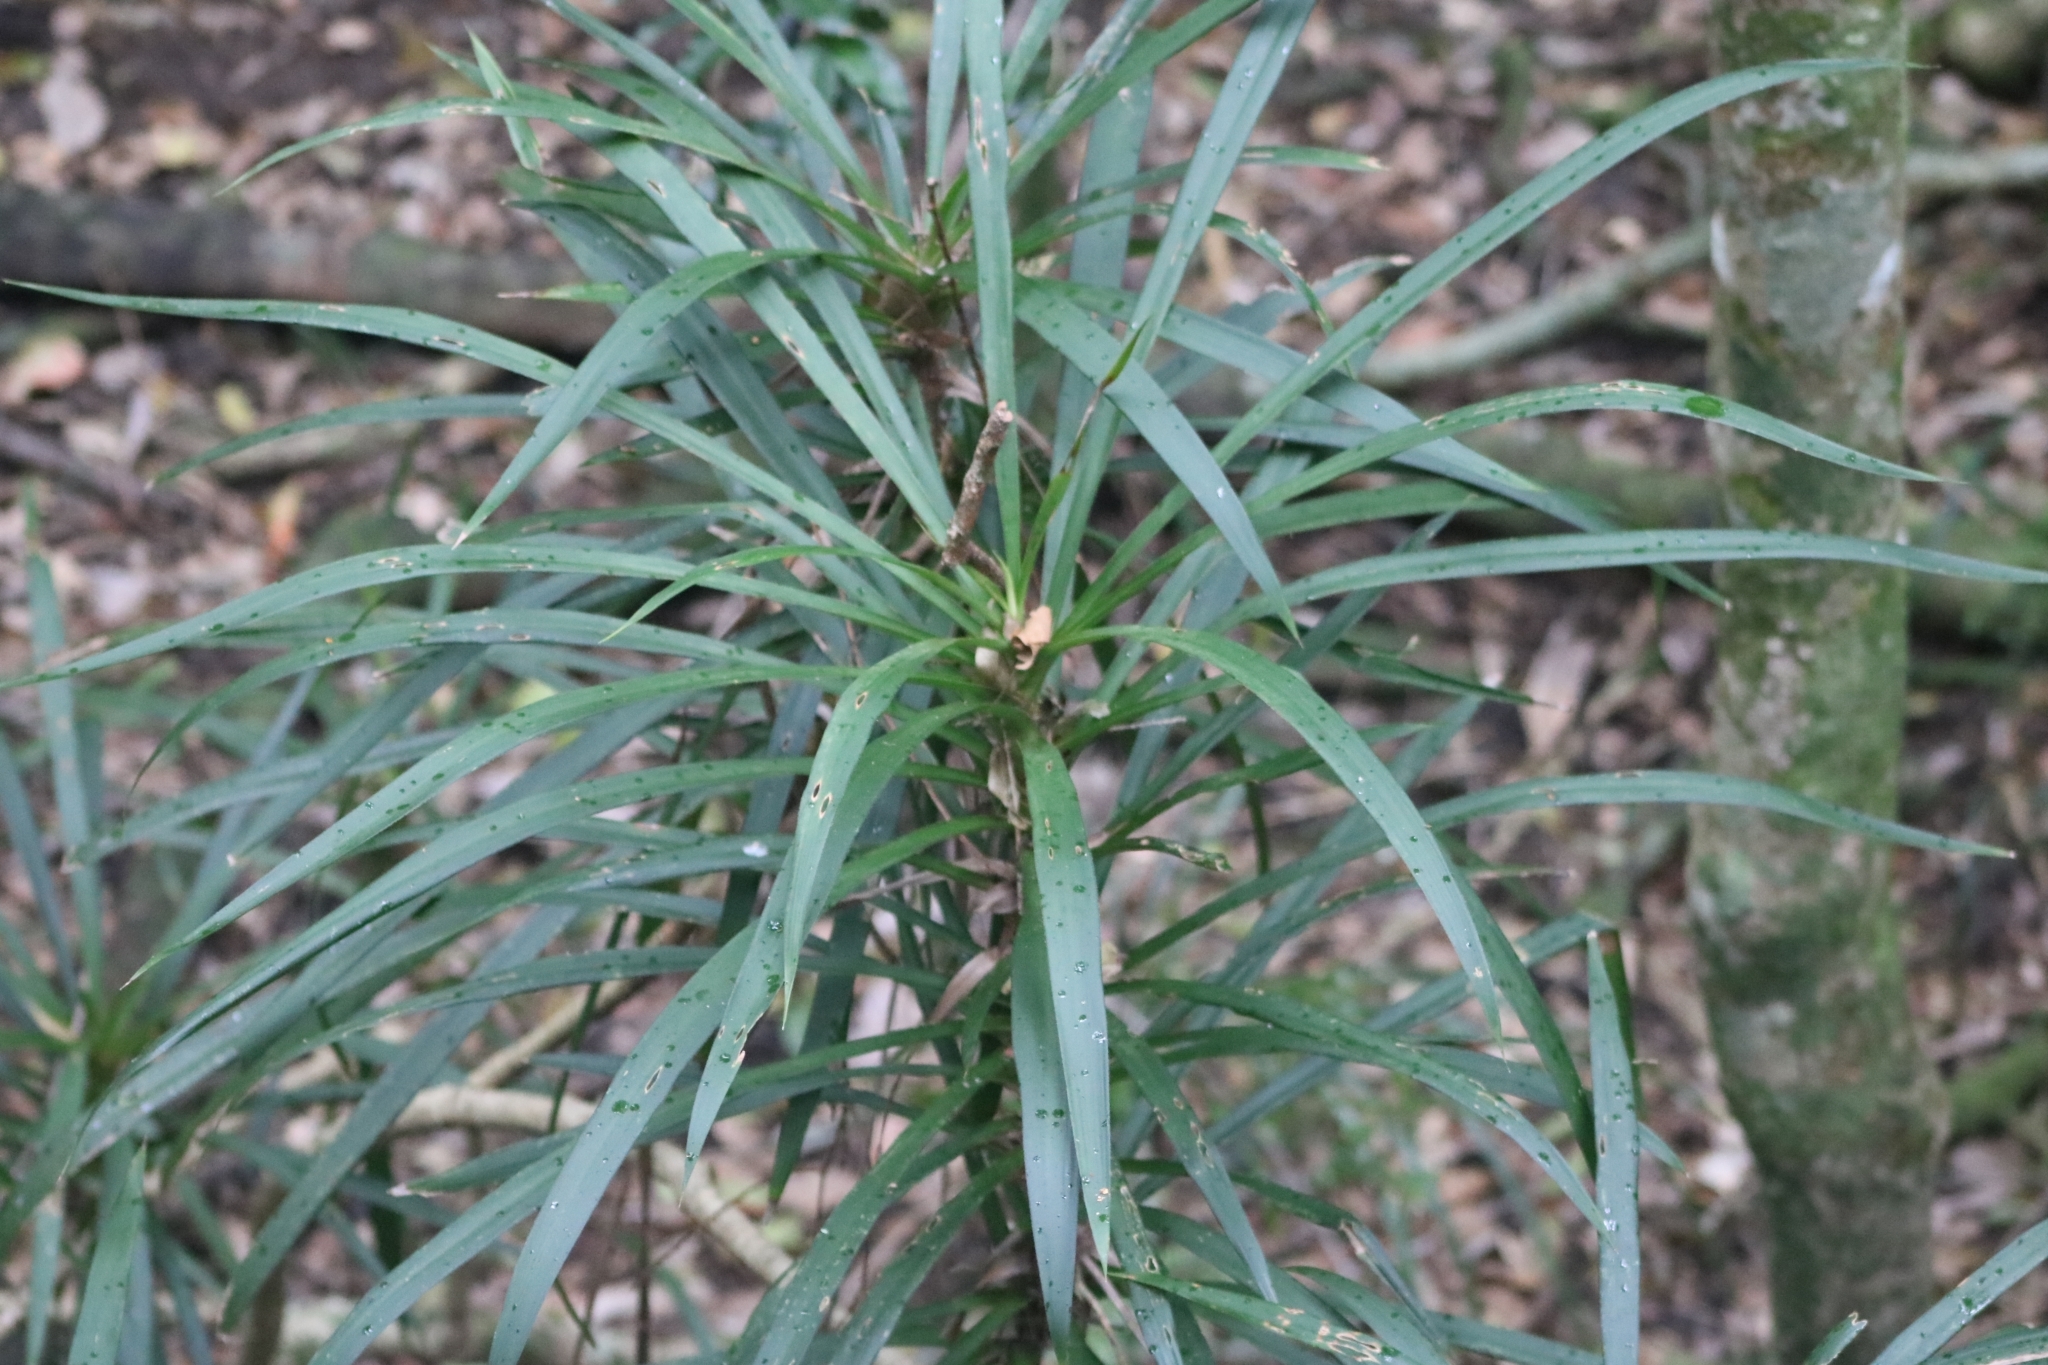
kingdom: Plantae
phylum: Tracheophyta
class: Liliopsida
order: Asparagales
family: Asparagaceae
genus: Cordyline
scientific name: Cordyline stricta
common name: Narrow-leaf palm-lily
